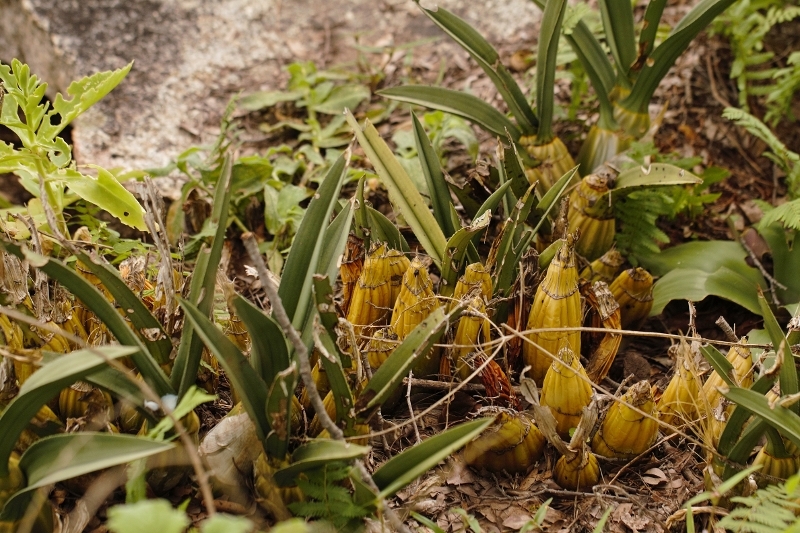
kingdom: Plantae
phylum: Tracheophyta
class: Liliopsida
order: Asparagales
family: Orchidaceae
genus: Eulophia
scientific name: Eulophia petersii
